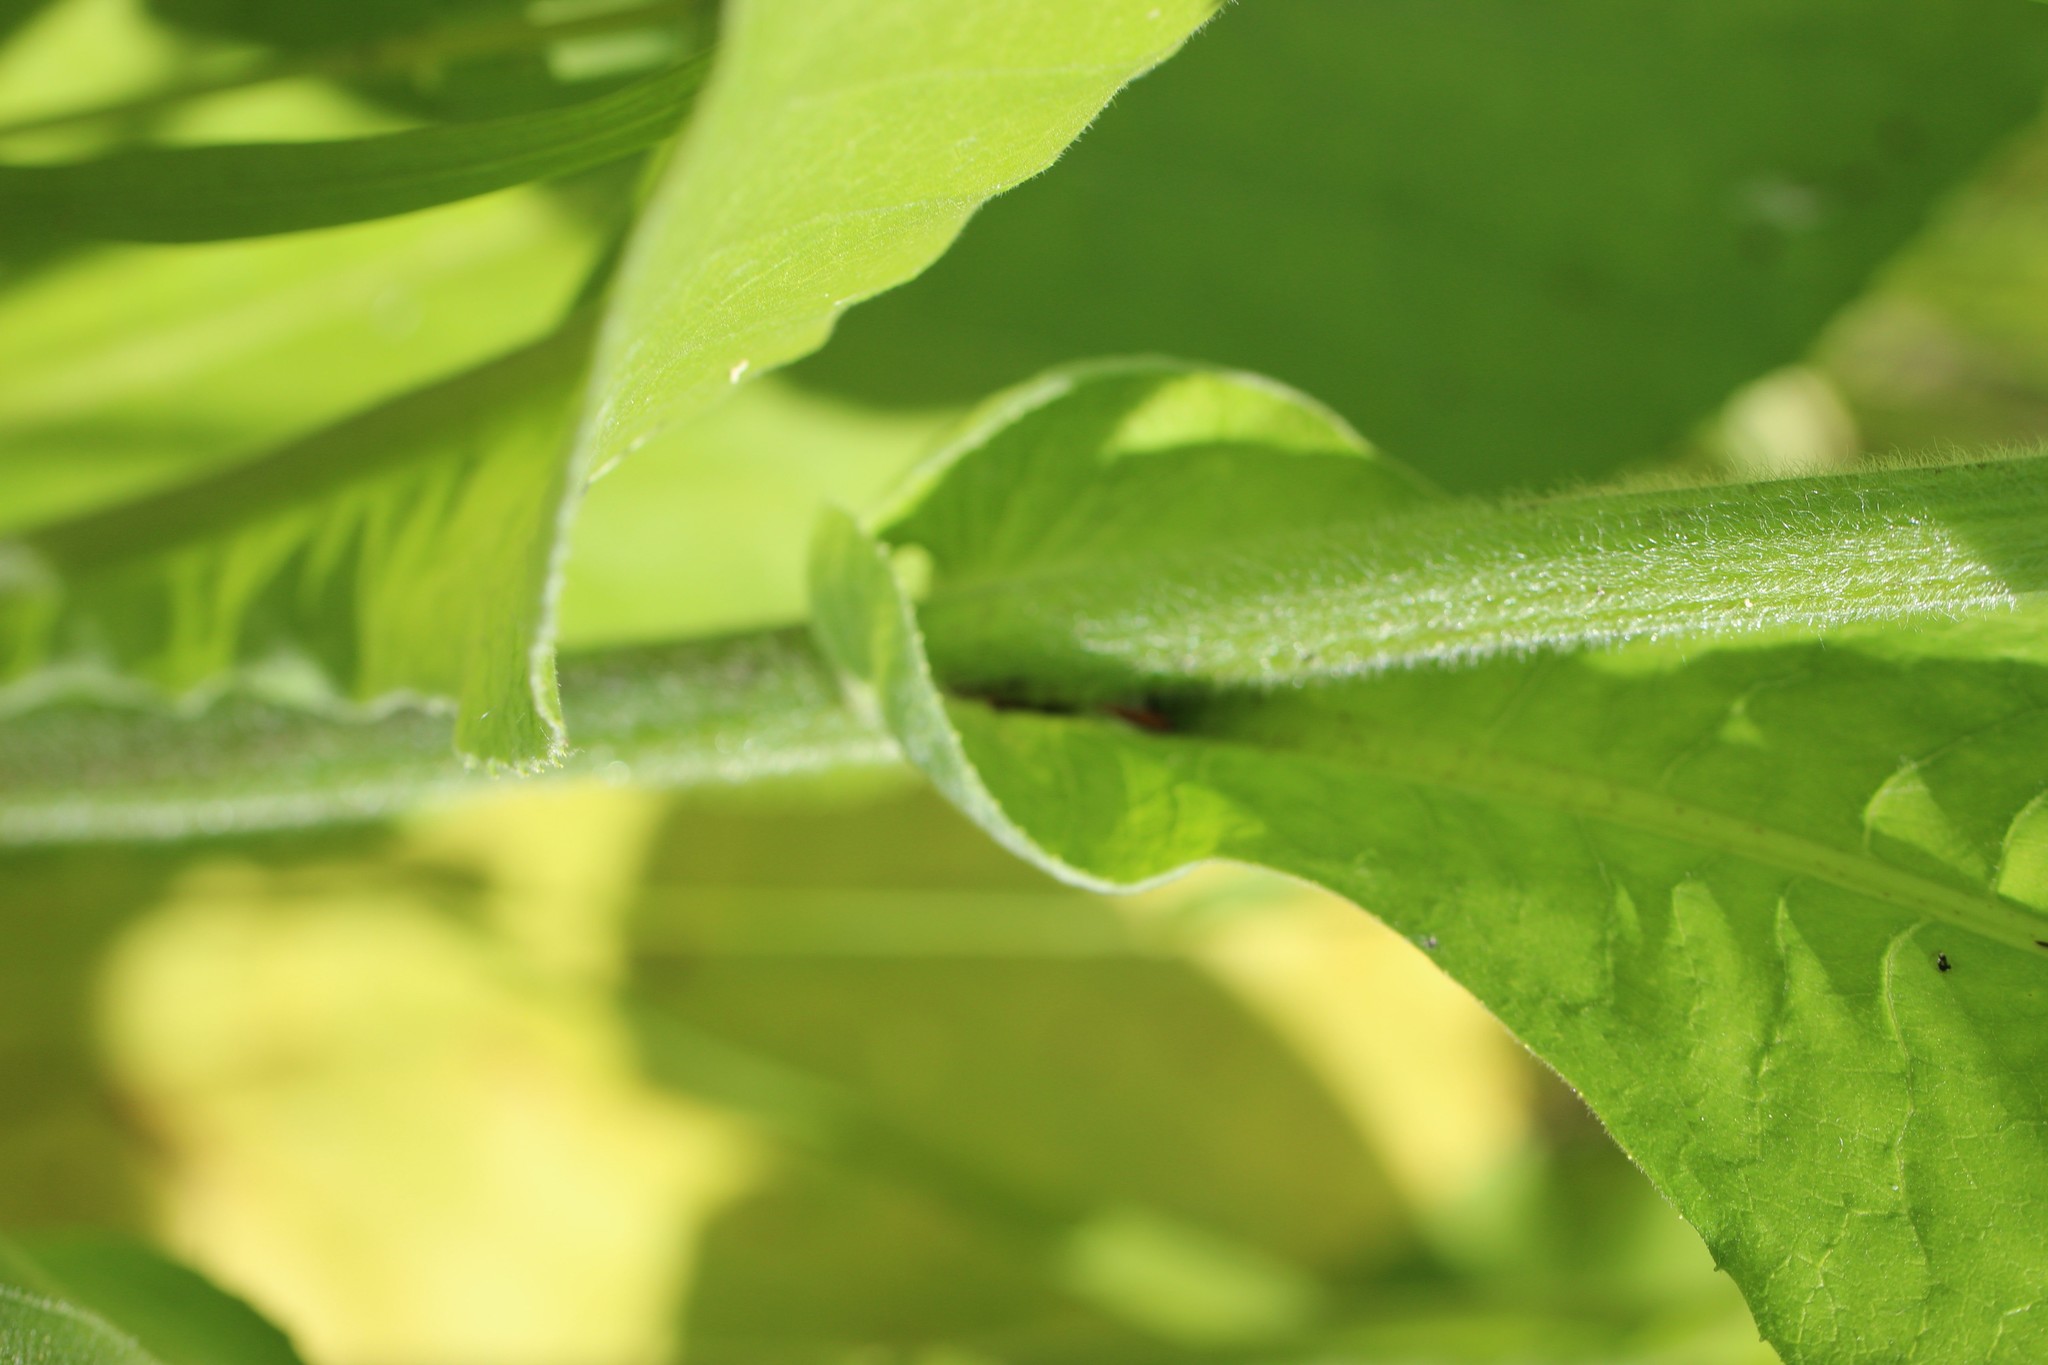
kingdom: Plantae
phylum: Tracheophyta
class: Magnoliopsida
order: Asterales
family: Asteraceae
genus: Inula
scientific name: Inula helenium
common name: Elecampane
